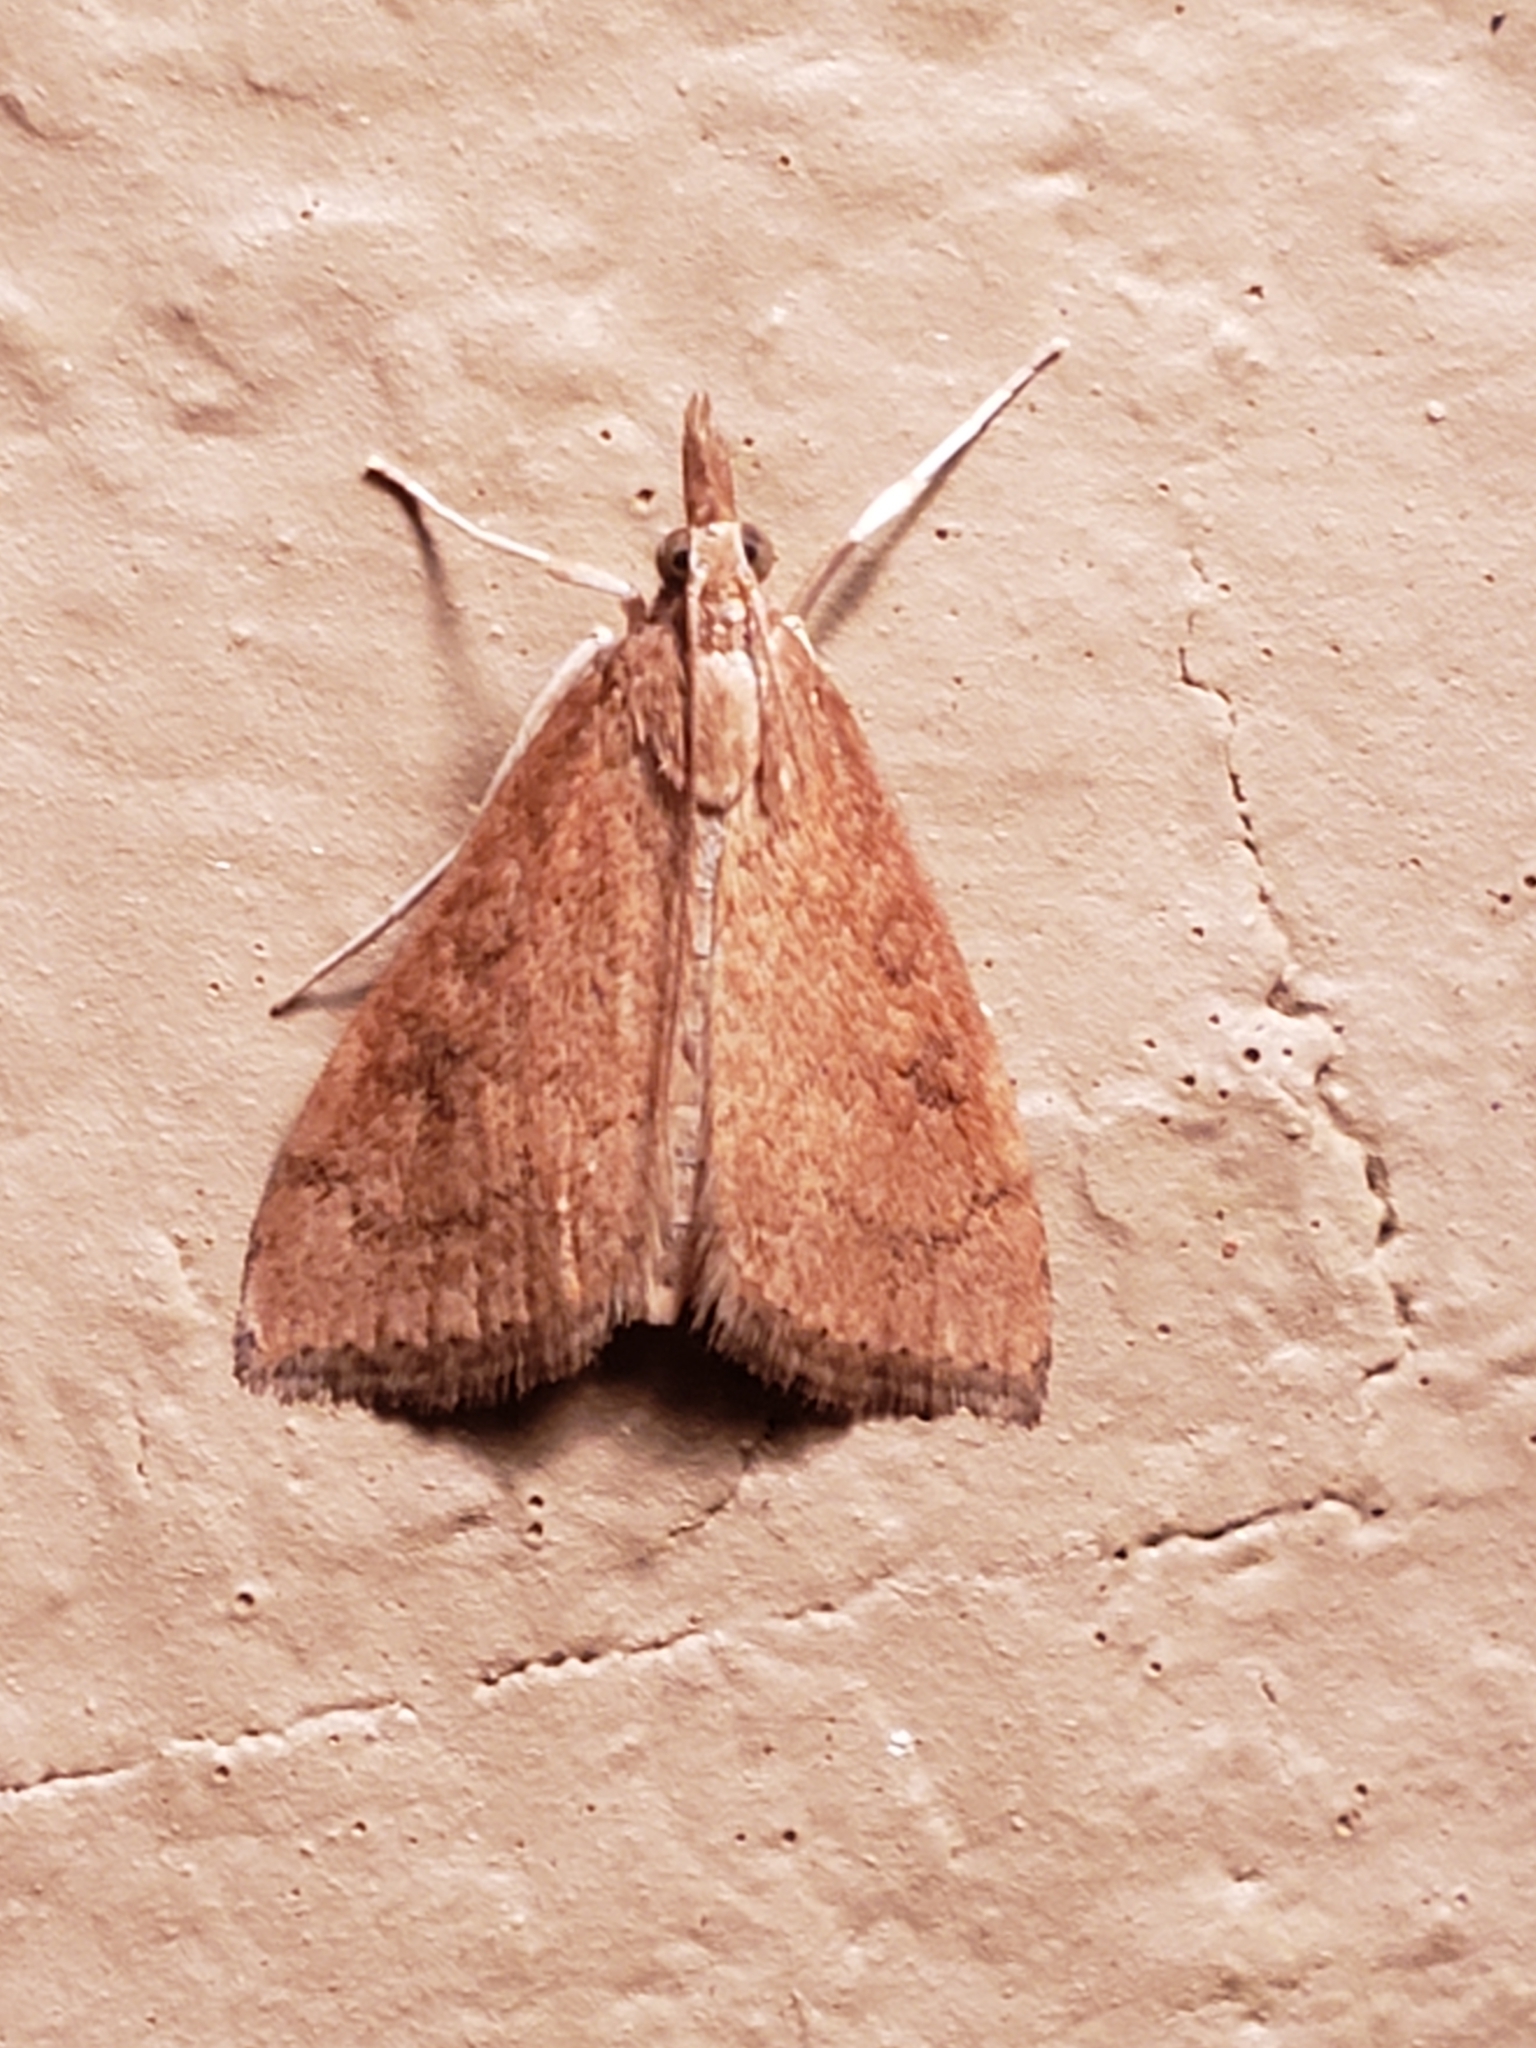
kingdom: Animalia
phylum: Arthropoda
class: Insecta
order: Lepidoptera
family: Crambidae
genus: Udea
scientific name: Udea rubigalis
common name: Celery leaftier moth
